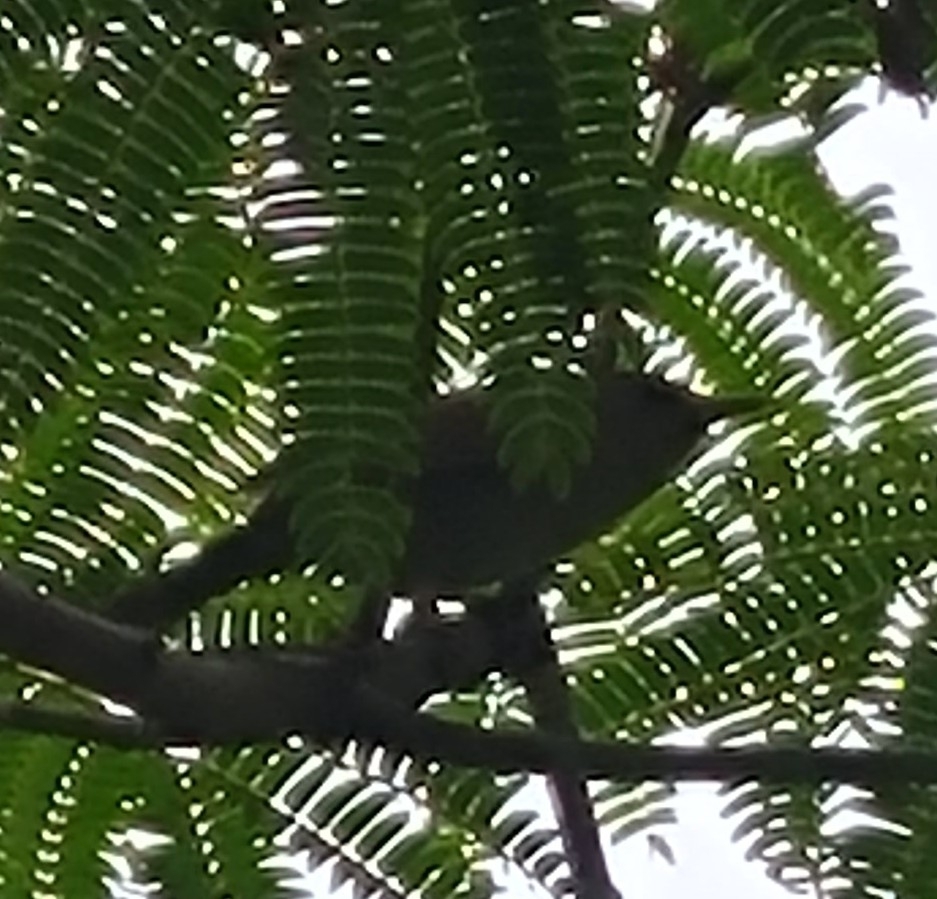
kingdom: Animalia
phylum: Chordata
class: Aves
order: Passeriformes
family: Troglodytidae
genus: Troglodytes
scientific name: Troglodytes aedon
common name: House wren
